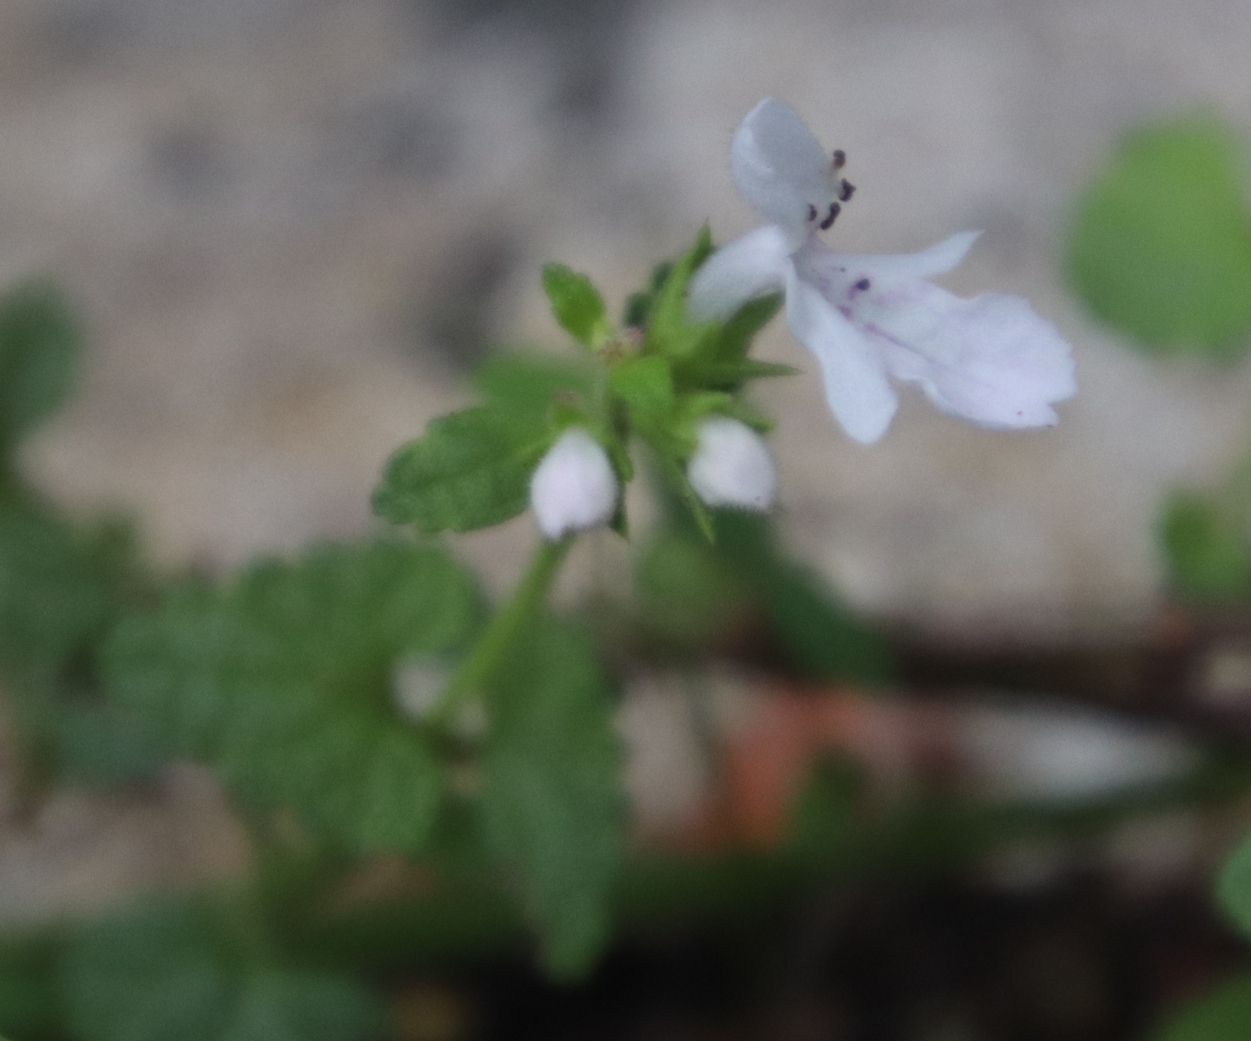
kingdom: Plantae
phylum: Tracheophyta
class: Magnoliopsida
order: Lamiales
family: Lamiaceae
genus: Stachys
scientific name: Stachys aethiopica
